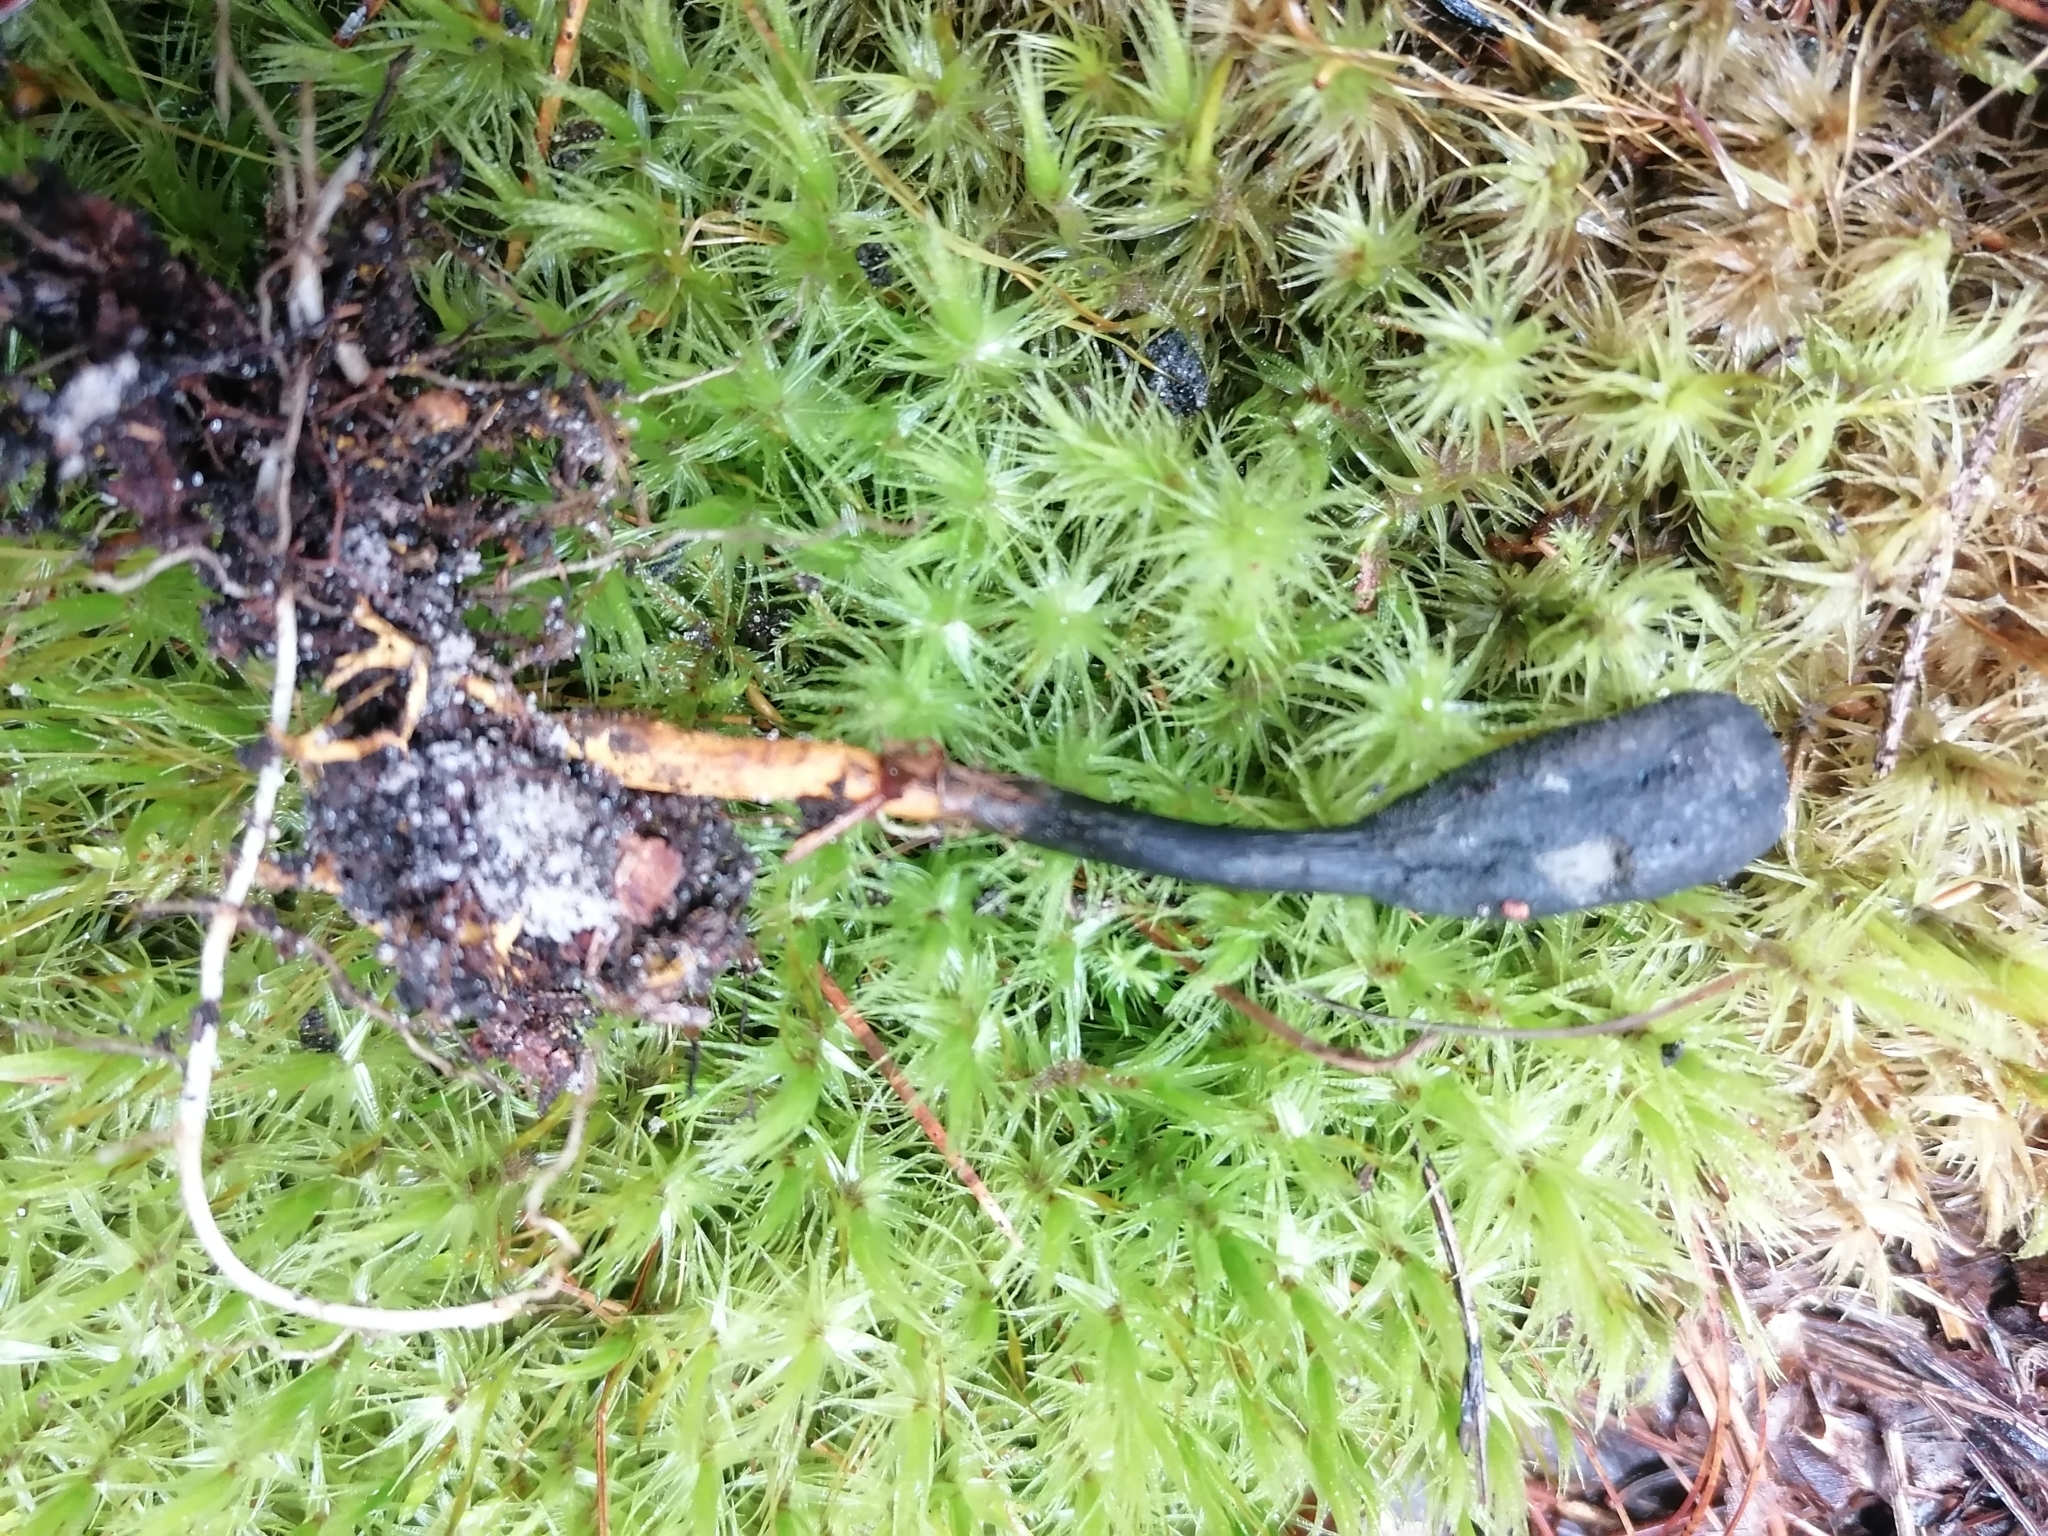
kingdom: Fungi
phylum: Ascomycota
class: Sordariomycetes
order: Hypocreales
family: Ophiocordycipitaceae
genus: Tolypocladium
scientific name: Tolypocladium ophioglossoides
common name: Snaketongue truffleclub
